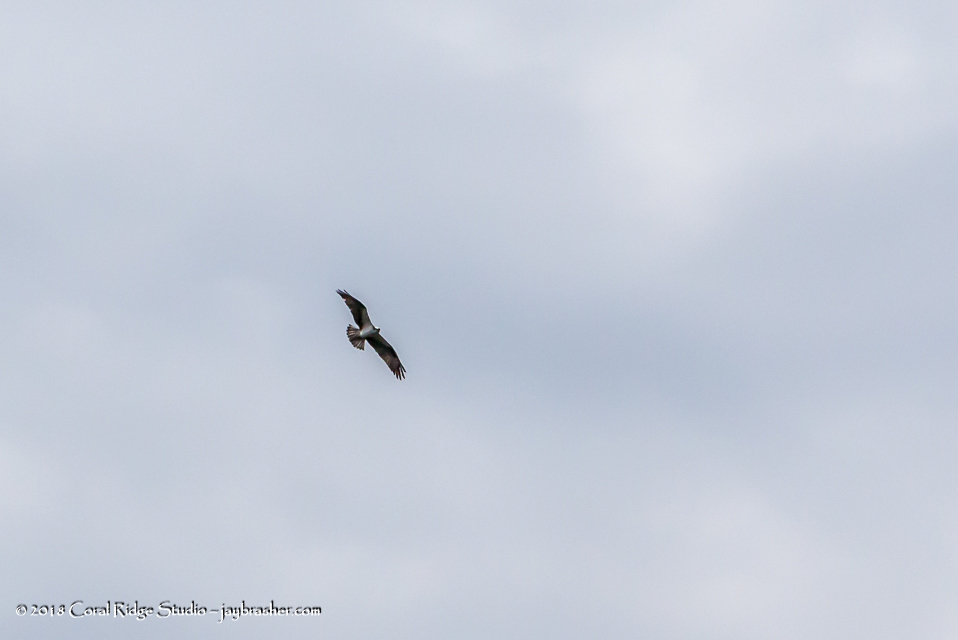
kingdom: Animalia
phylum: Chordata
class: Aves
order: Accipitriformes
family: Pandionidae
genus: Pandion
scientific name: Pandion haliaetus
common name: Osprey
